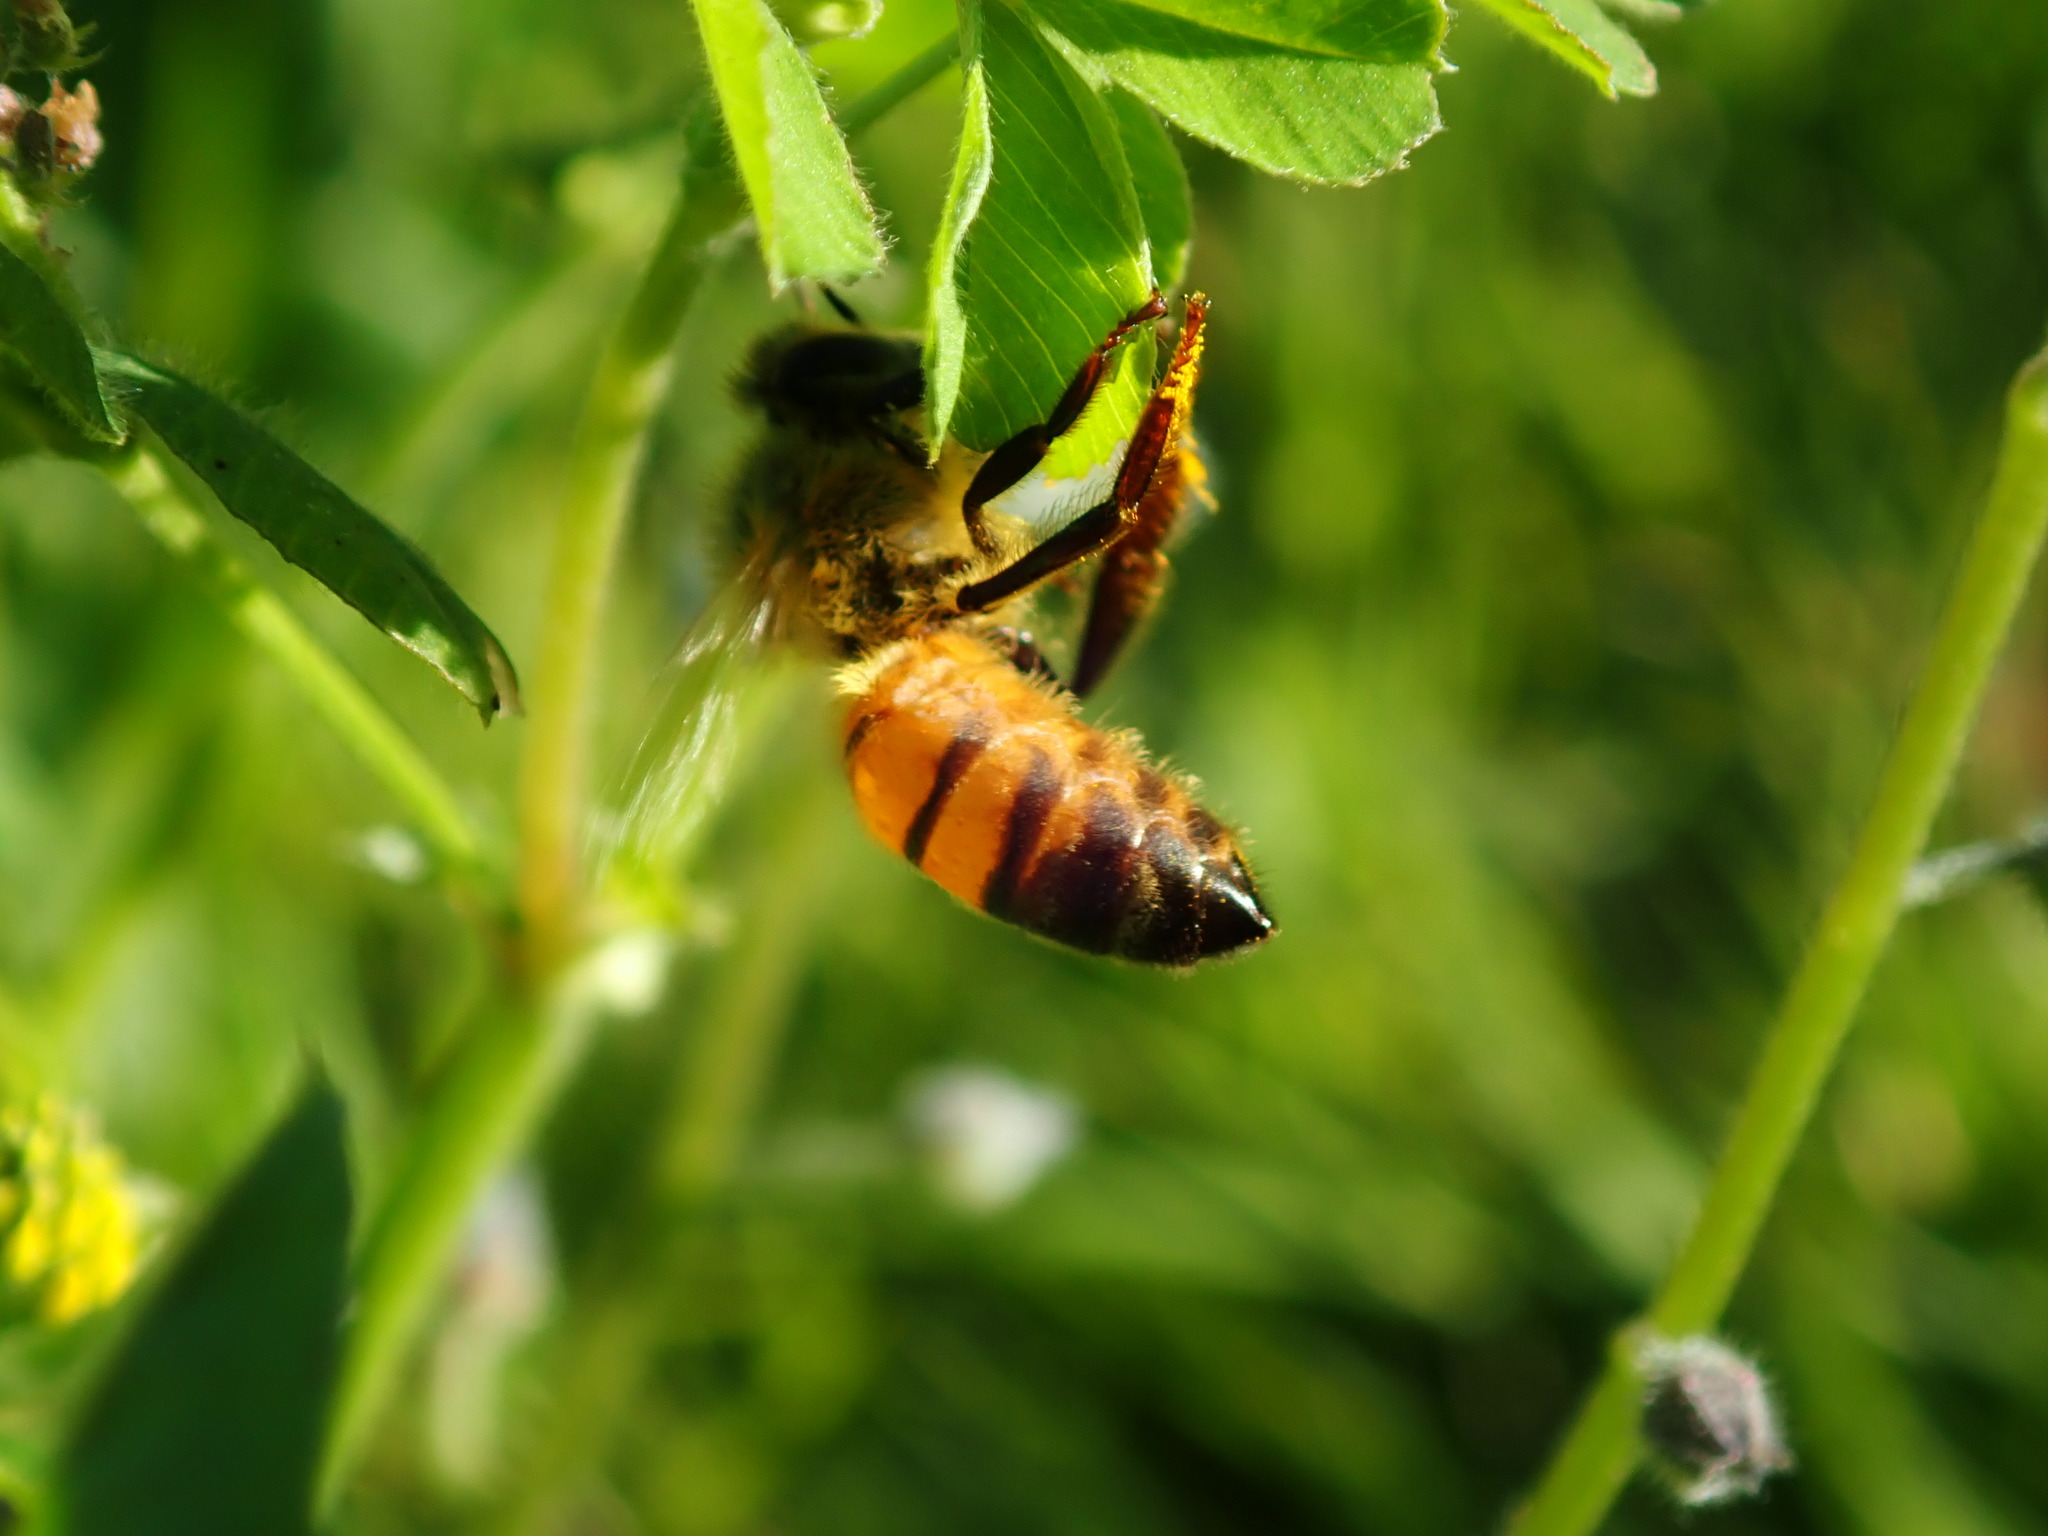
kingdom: Animalia
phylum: Arthropoda
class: Insecta
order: Hymenoptera
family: Apidae
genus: Apis
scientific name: Apis mellifera
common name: Honey bee
